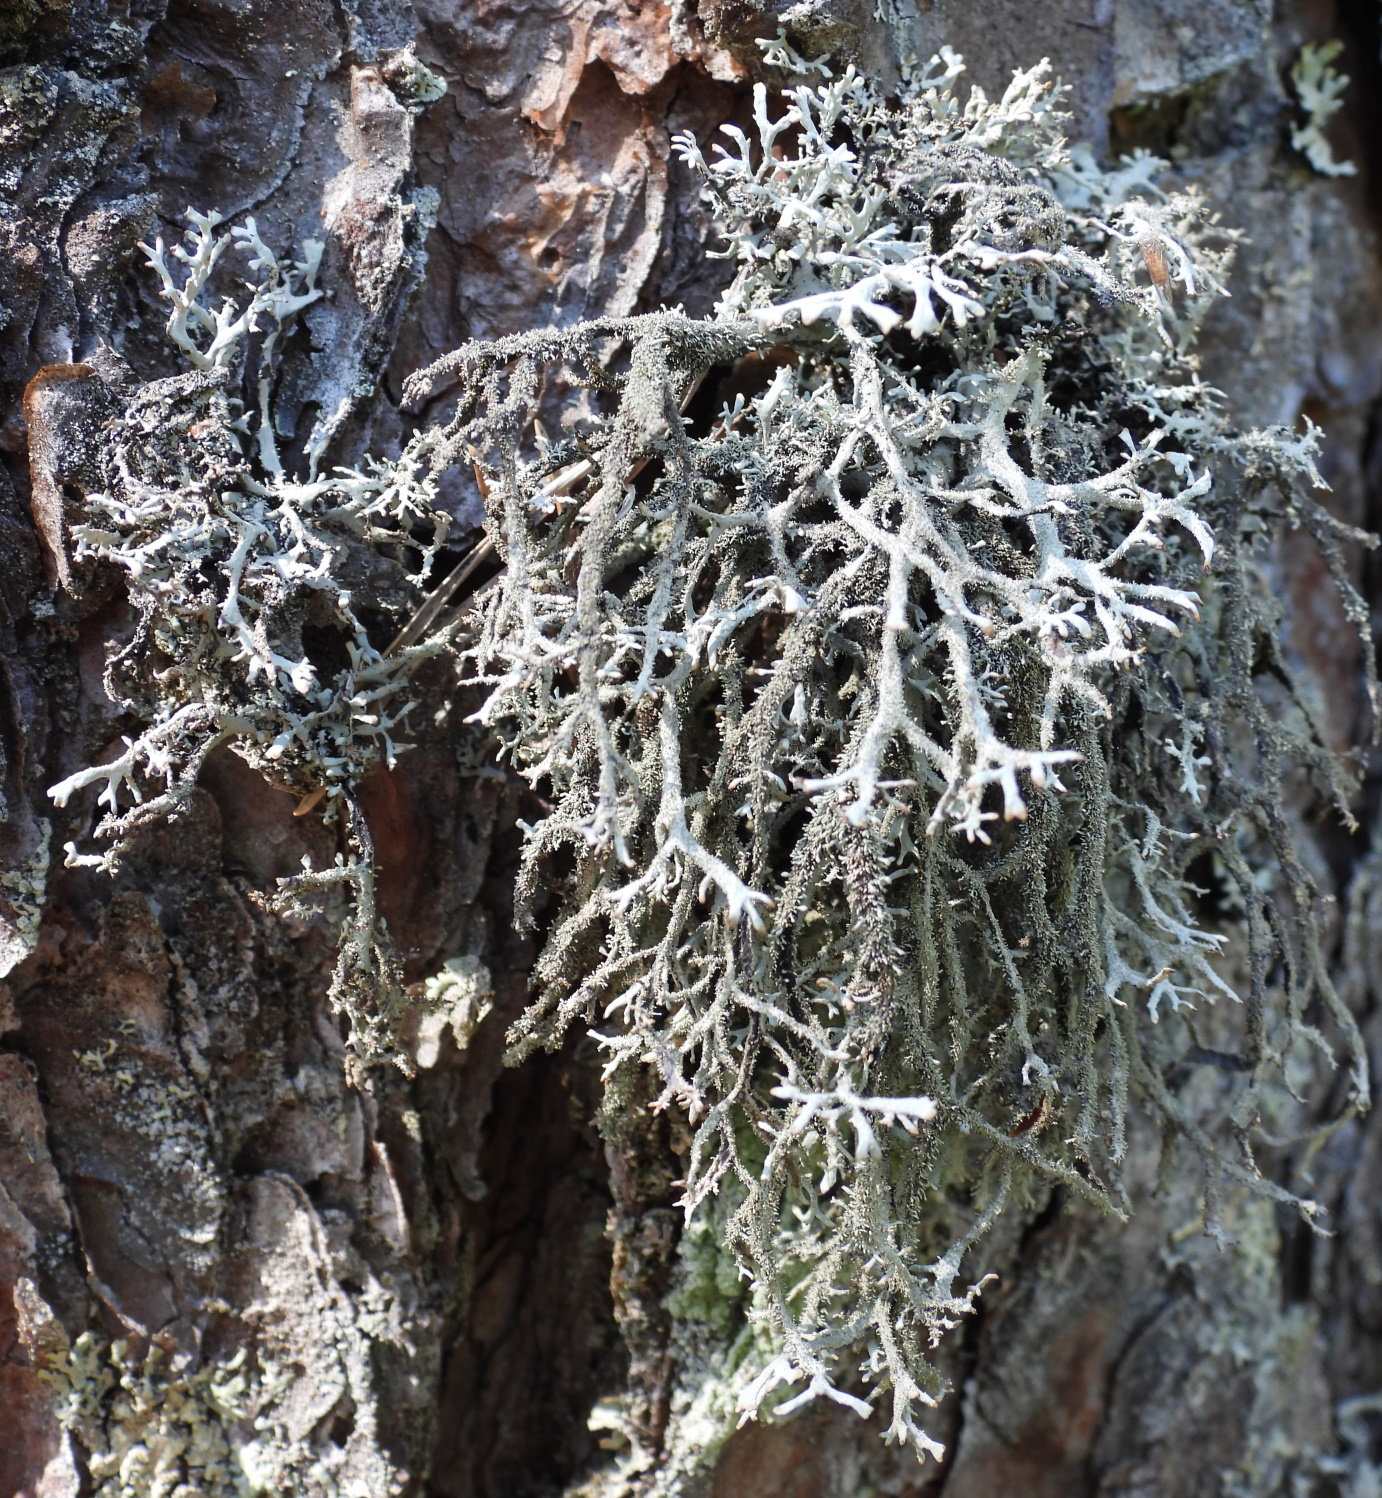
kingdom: Fungi
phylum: Ascomycota
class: Lecanoromycetes
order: Lecanorales
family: Parmeliaceae
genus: Pseudevernia
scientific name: Pseudevernia furfuracea
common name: Tree moss
